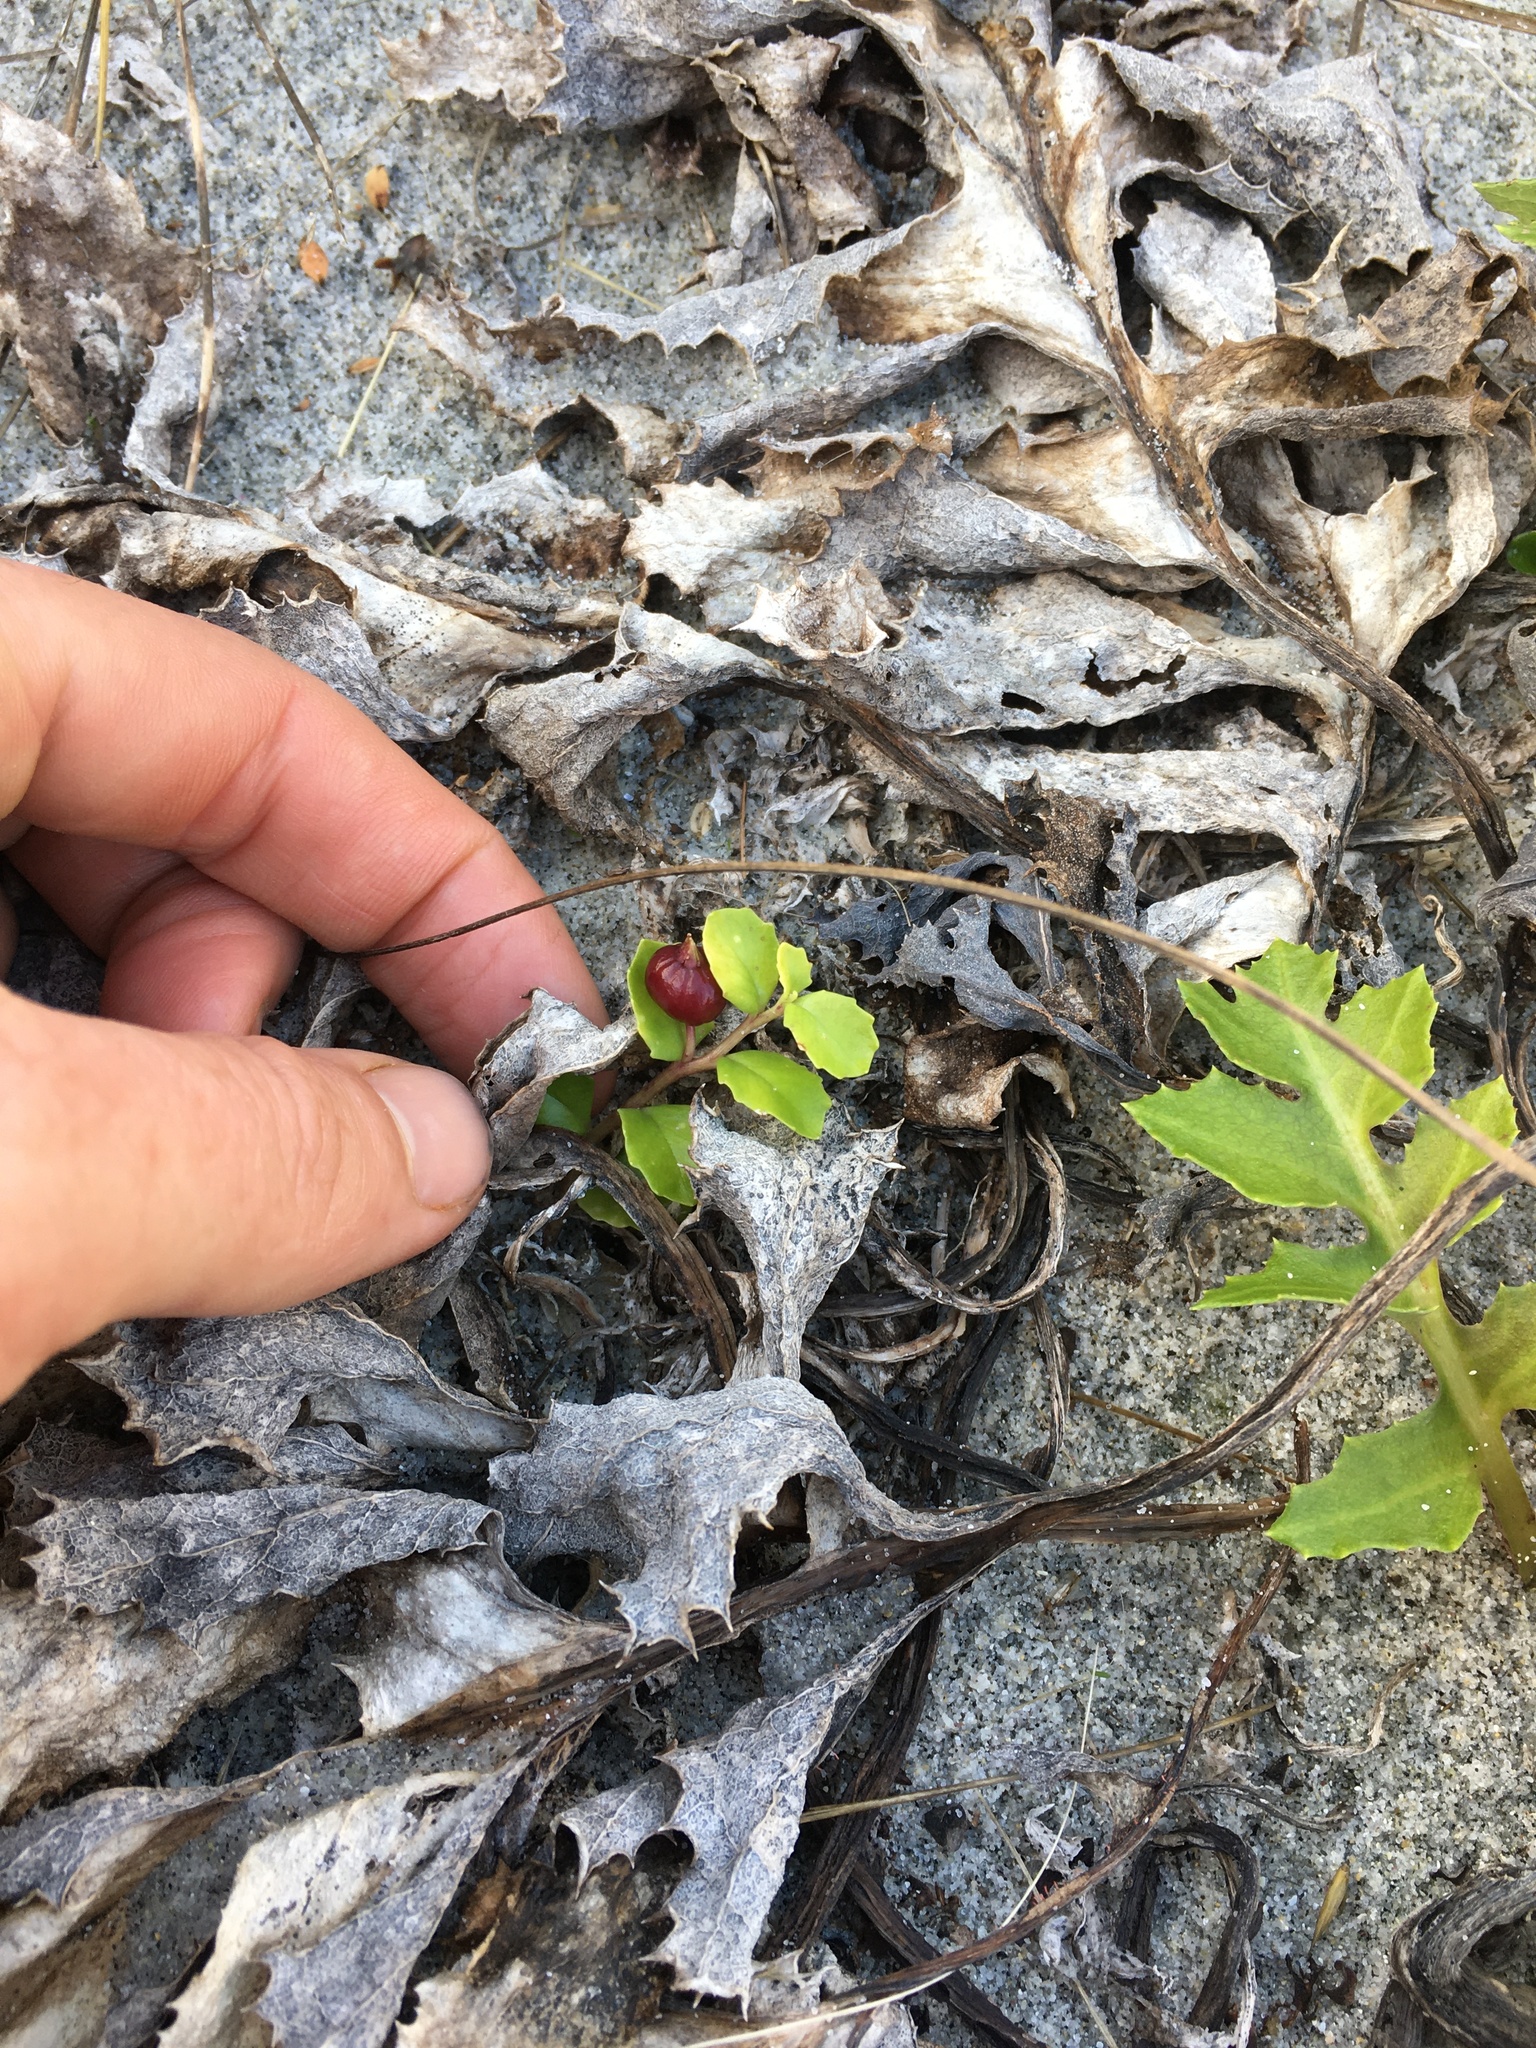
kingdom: Plantae
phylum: Tracheophyta
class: Magnoliopsida
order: Asterales
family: Campanulaceae
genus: Lobelia
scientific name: Lobelia arenaria
